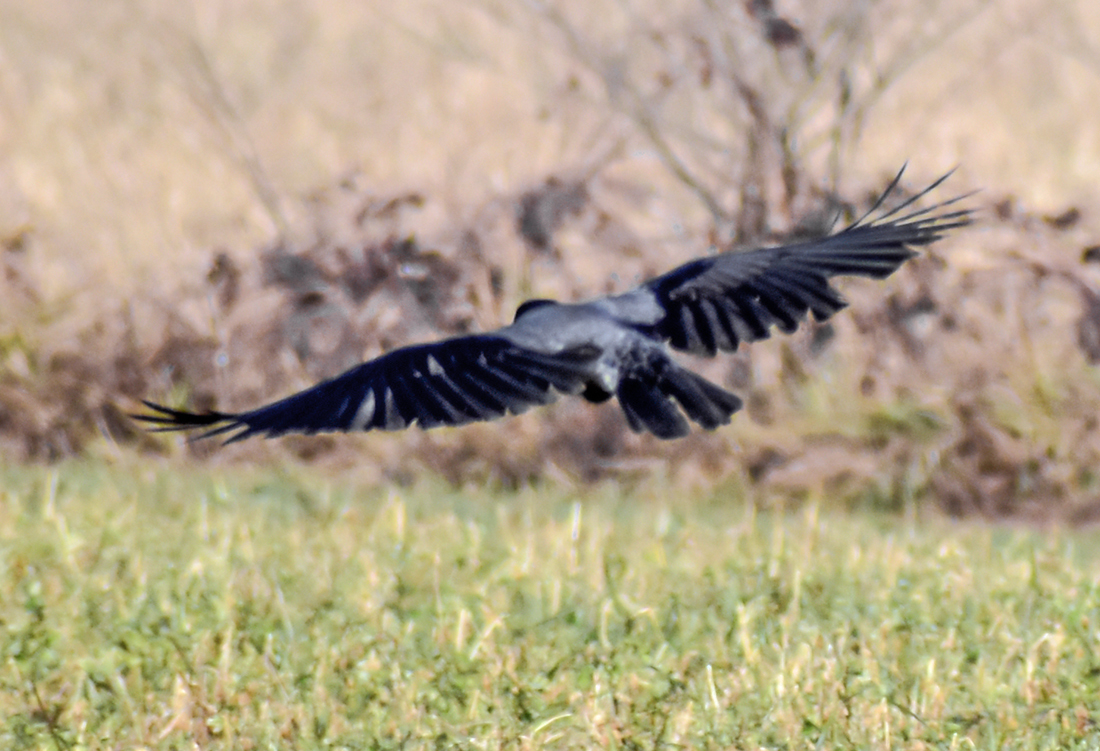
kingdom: Animalia
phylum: Chordata
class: Aves
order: Passeriformes
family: Corvidae
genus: Corvus
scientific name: Corvus cornix
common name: Hooded crow
